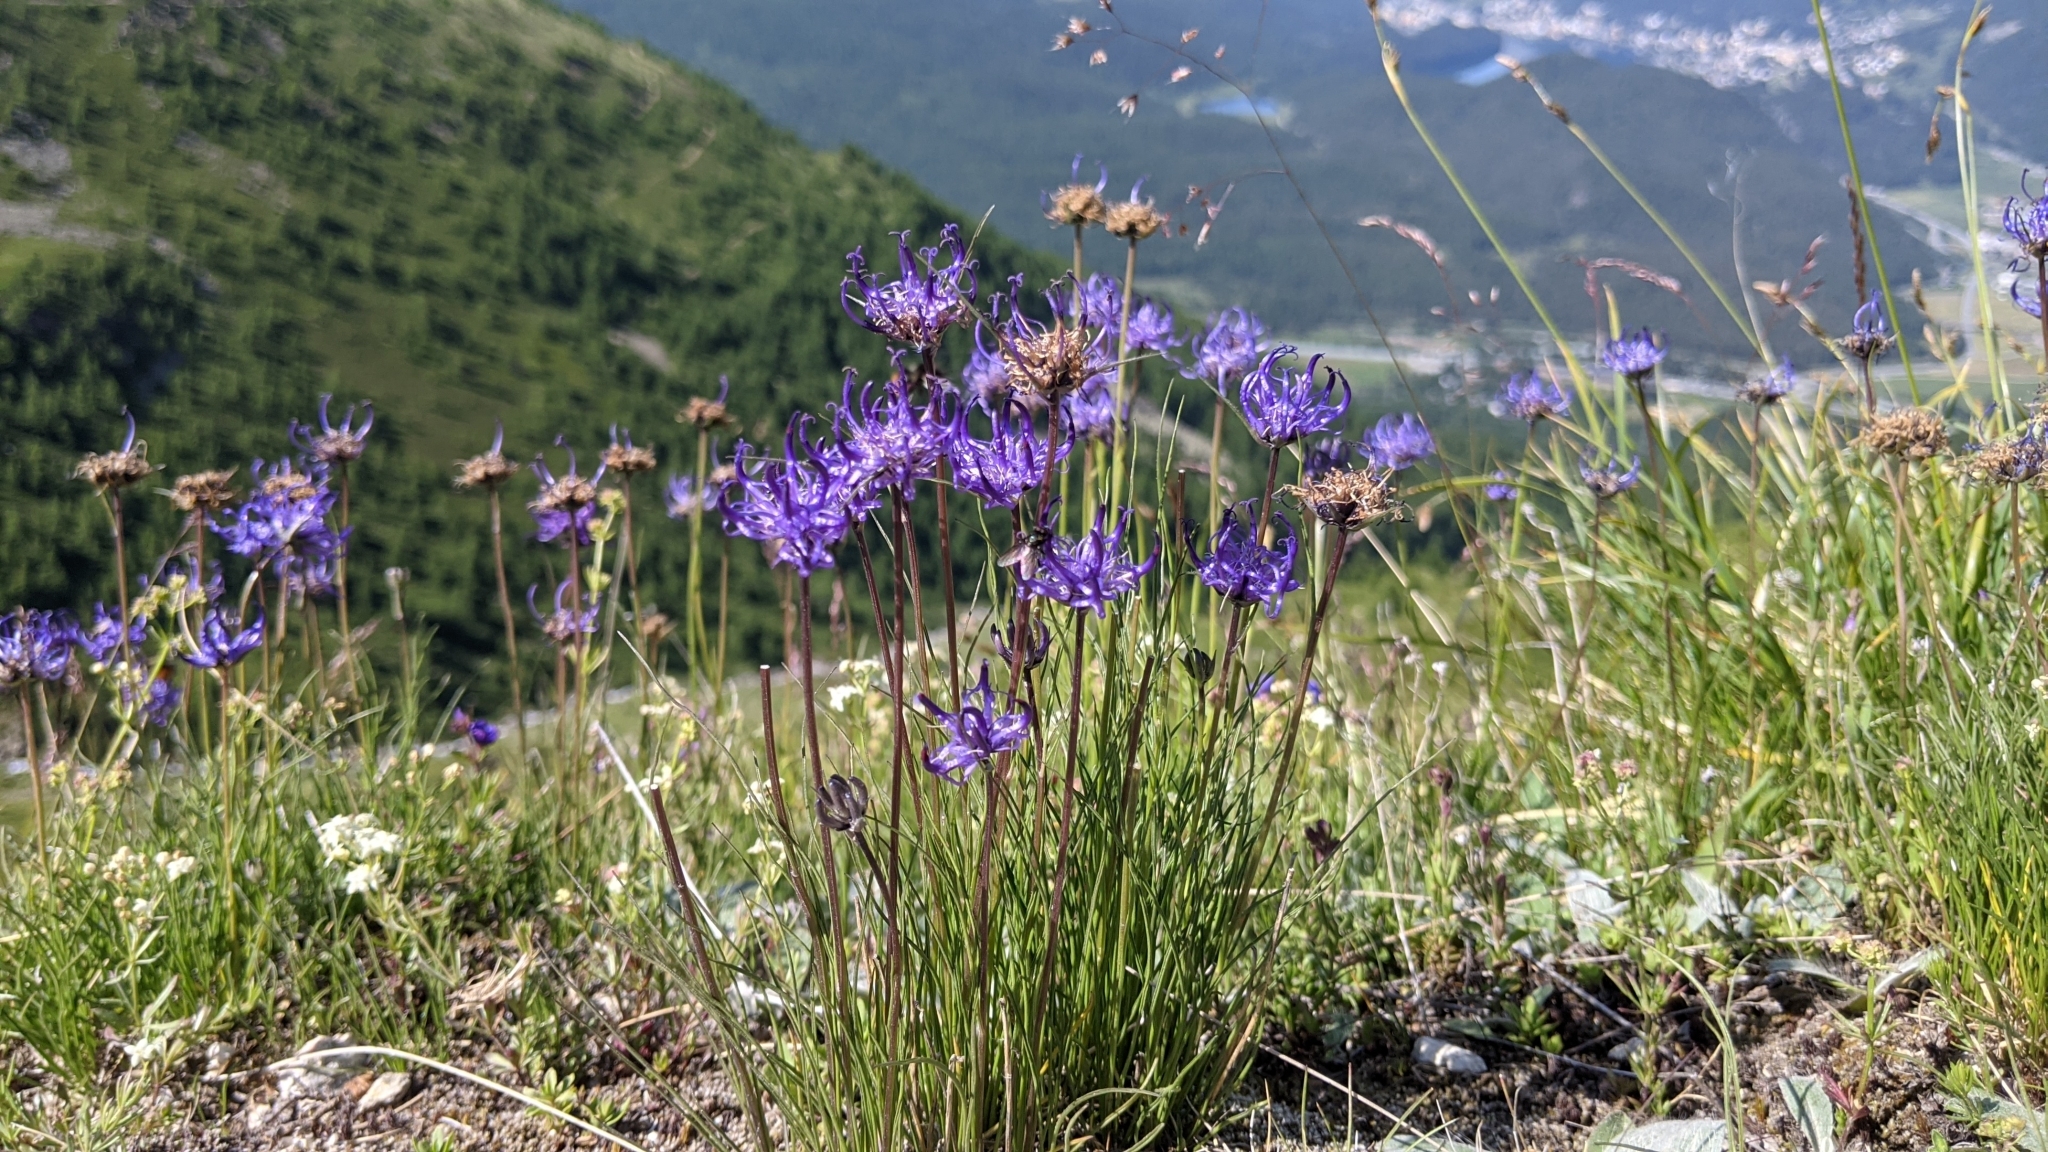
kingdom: Plantae
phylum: Tracheophyta
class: Magnoliopsida
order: Asterales
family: Campanulaceae
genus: Phyteuma
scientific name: Phyteuma hemisphaericum
